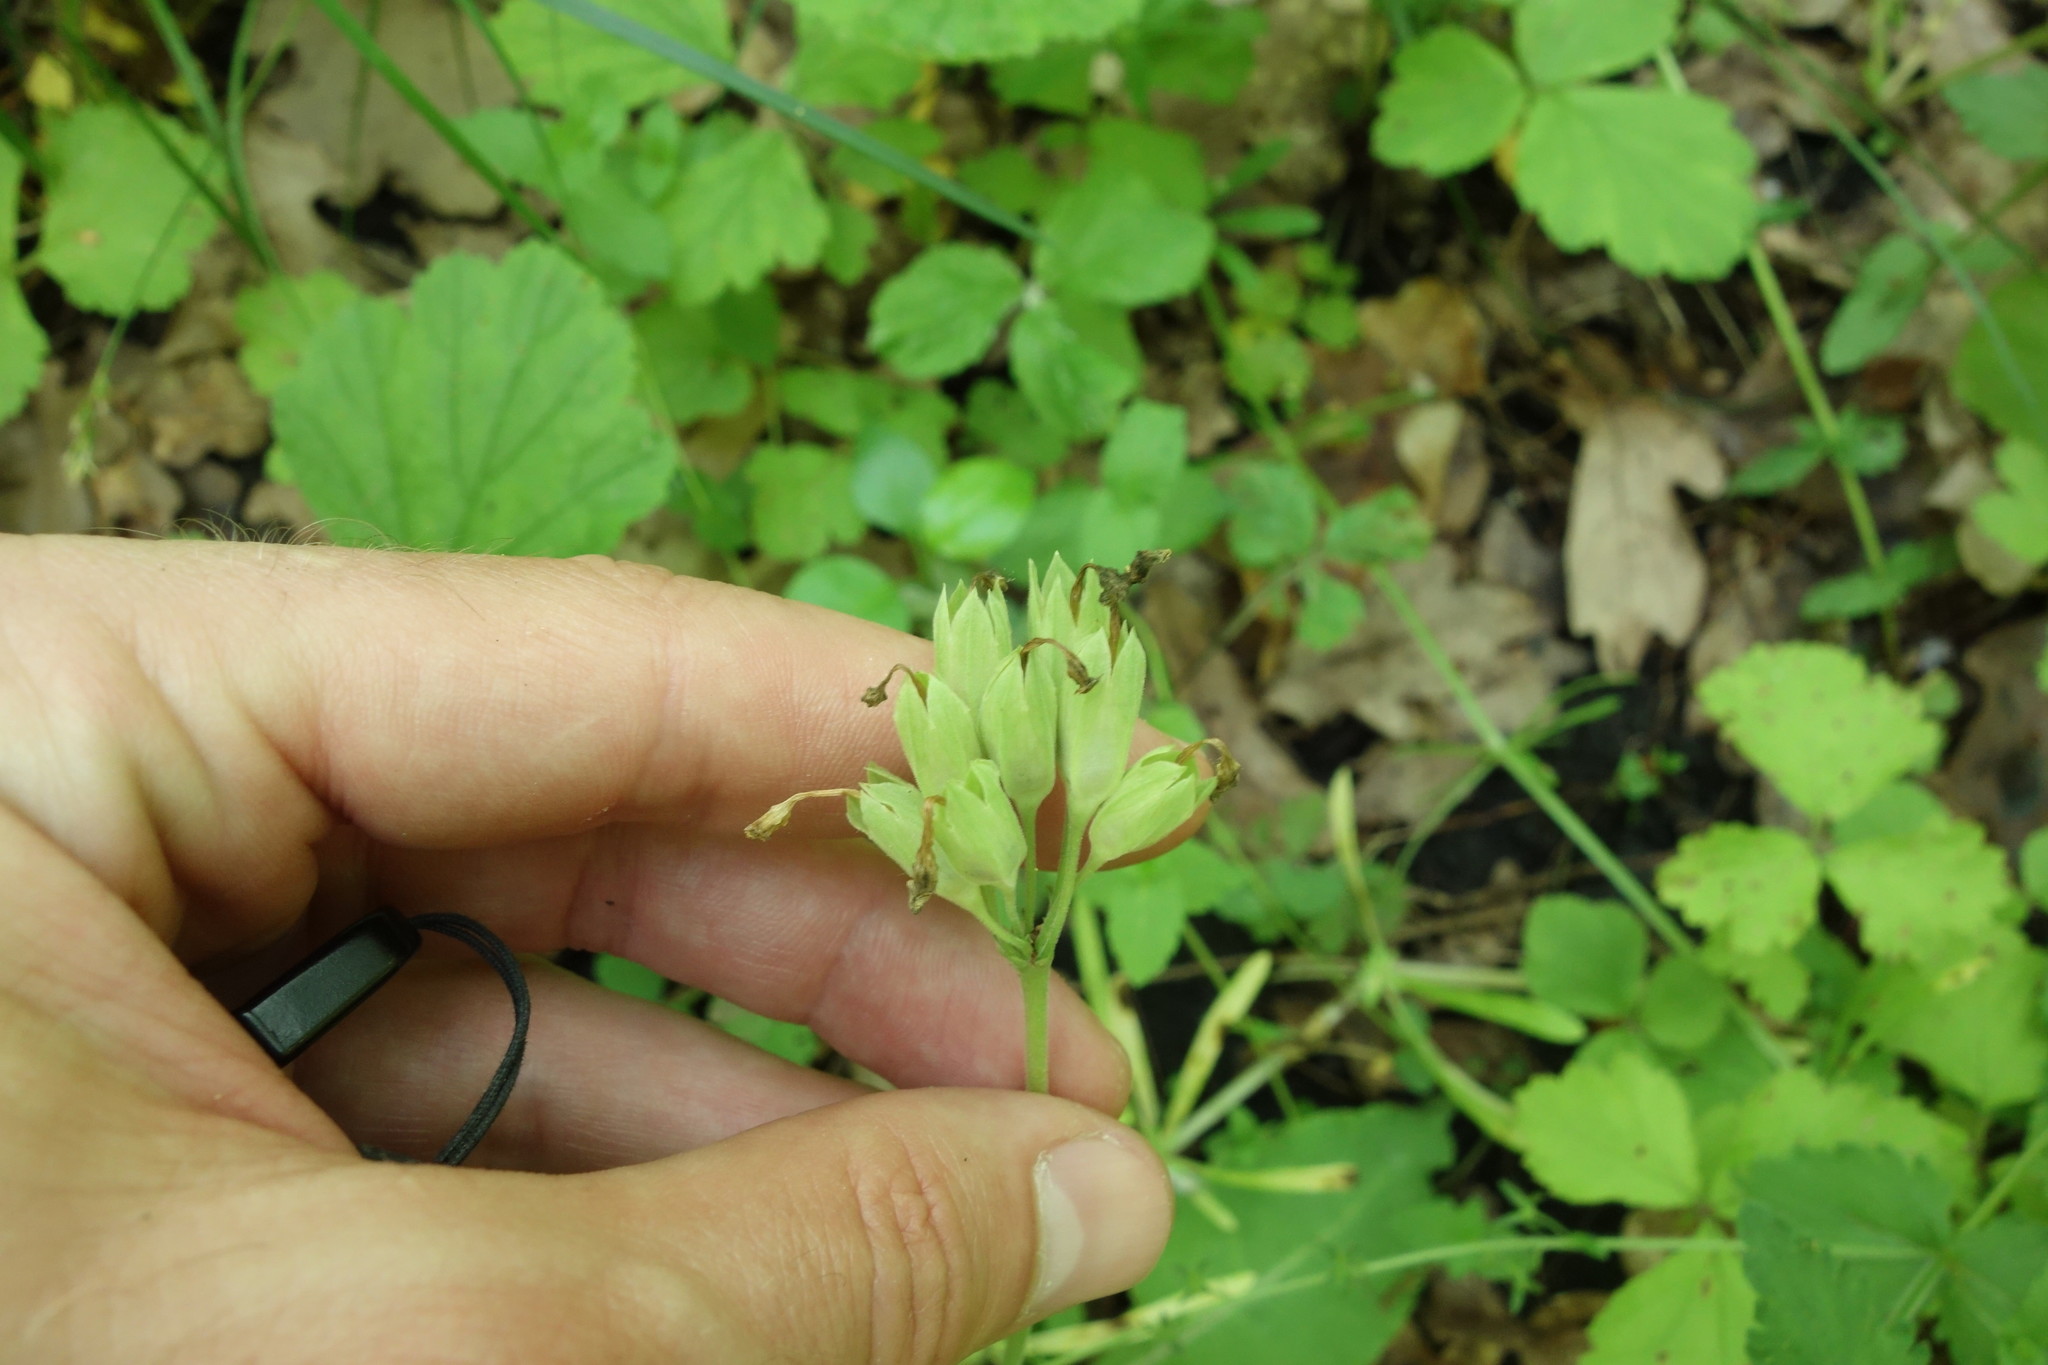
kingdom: Plantae
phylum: Tracheophyta
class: Magnoliopsida
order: Ericales
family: Primulaceae
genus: Primula
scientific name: Primula veris
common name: Cowslip
